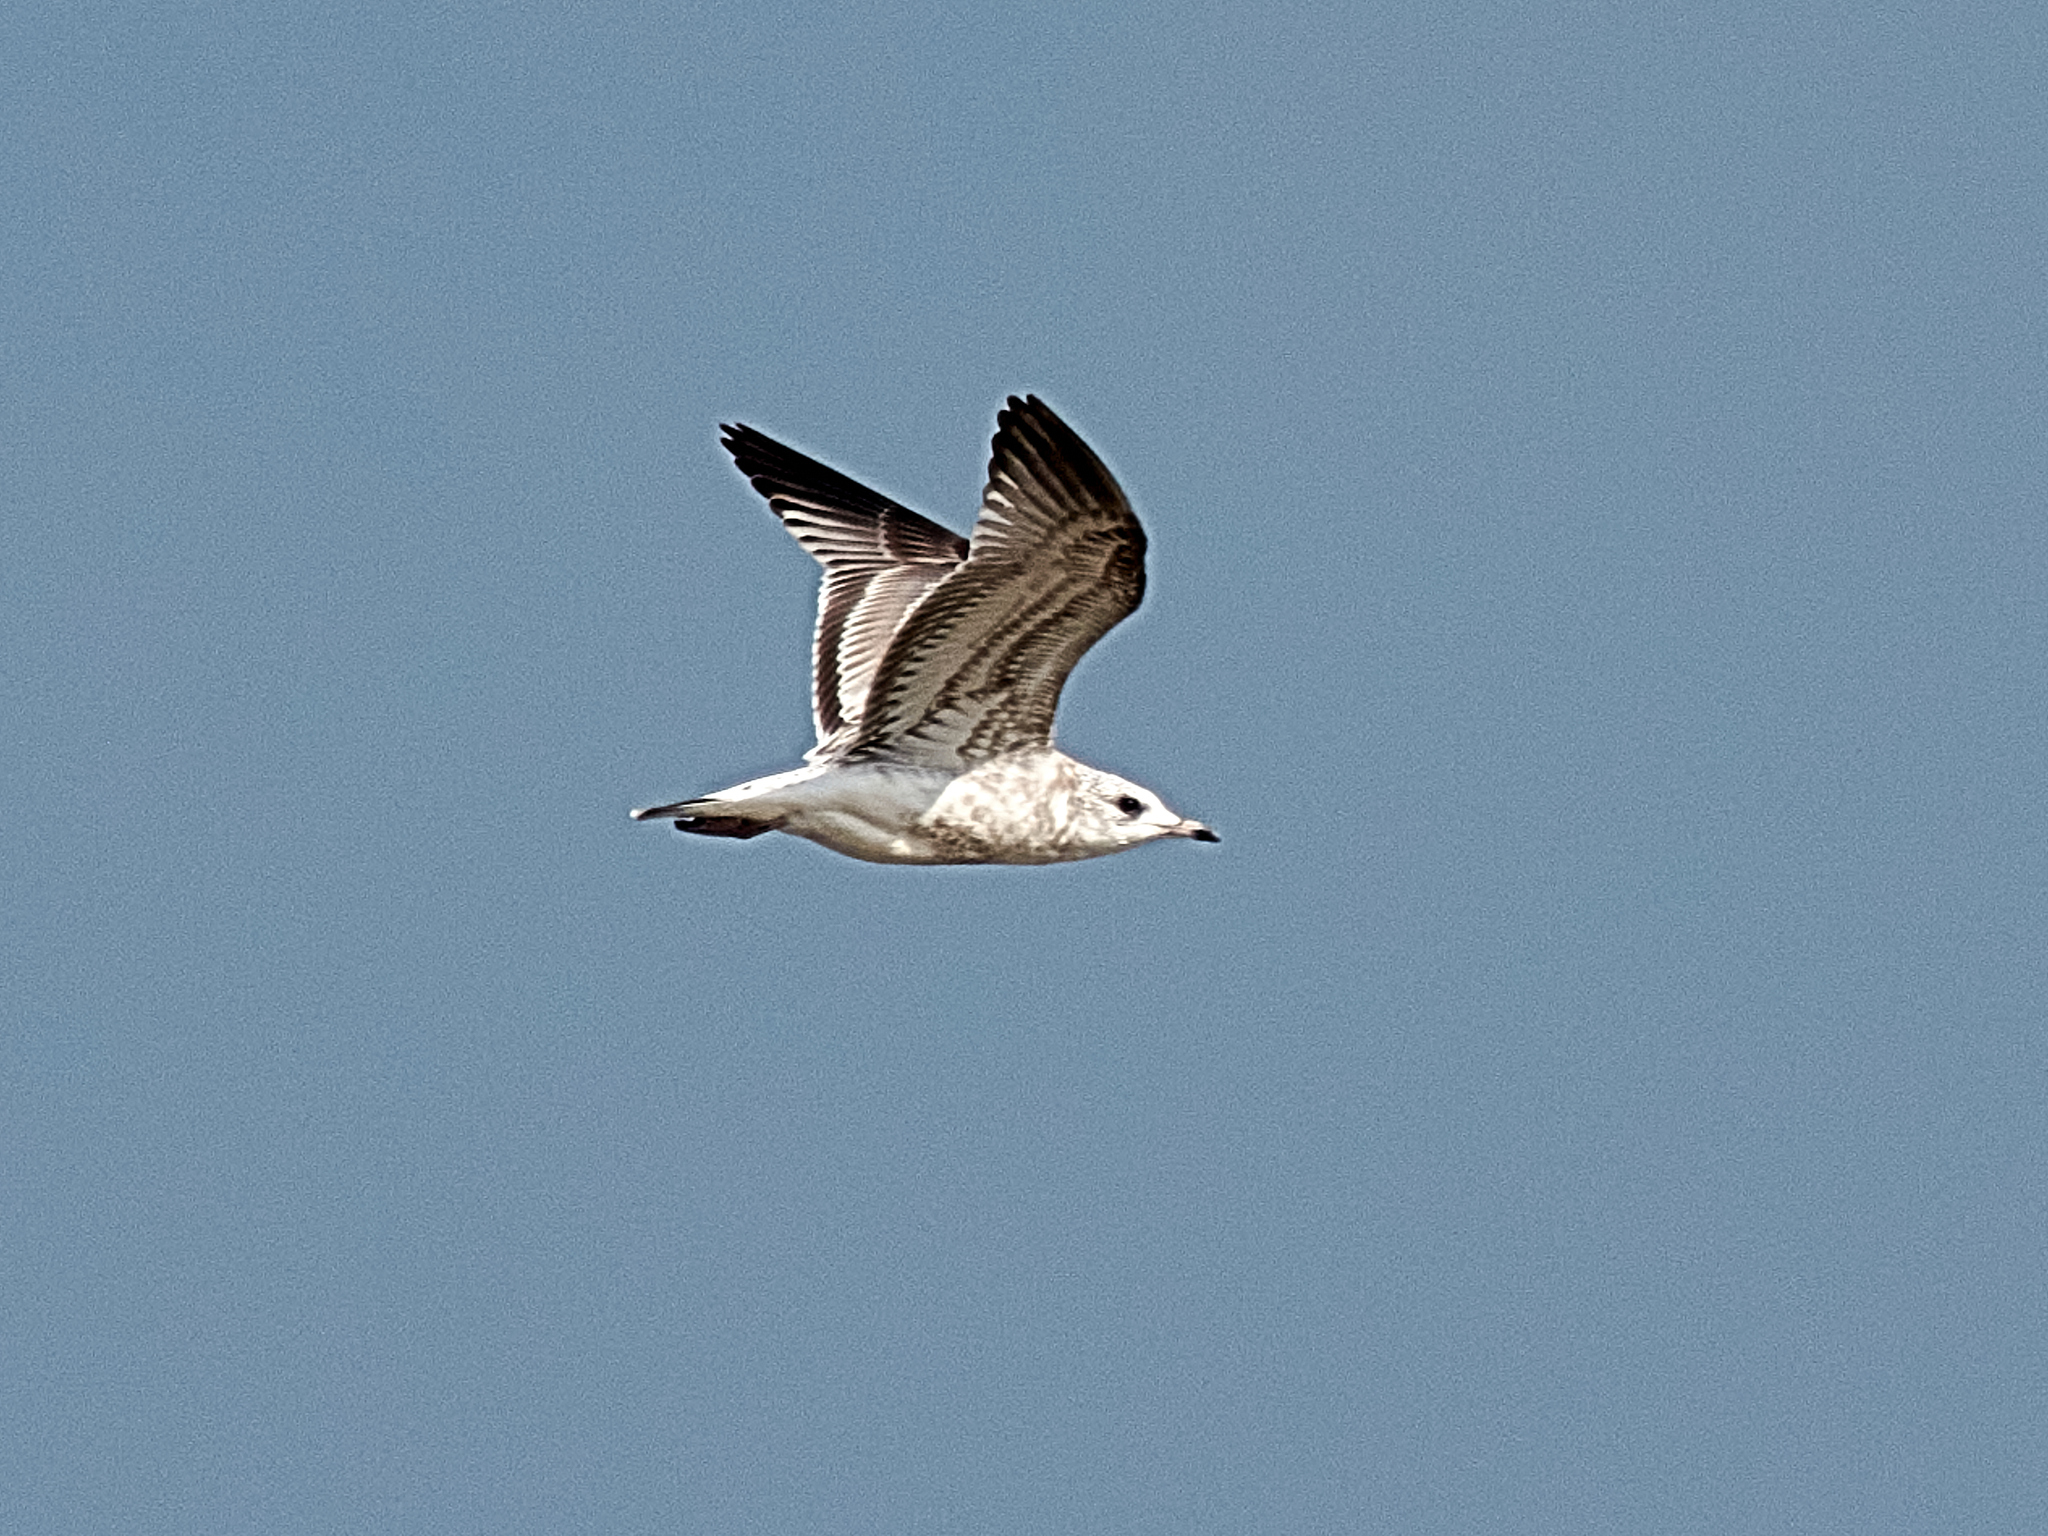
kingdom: Animalia
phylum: Chordata
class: Aves
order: Charadriiformes
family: Laridae
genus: Larus
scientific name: Larus canus
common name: Mew gull
